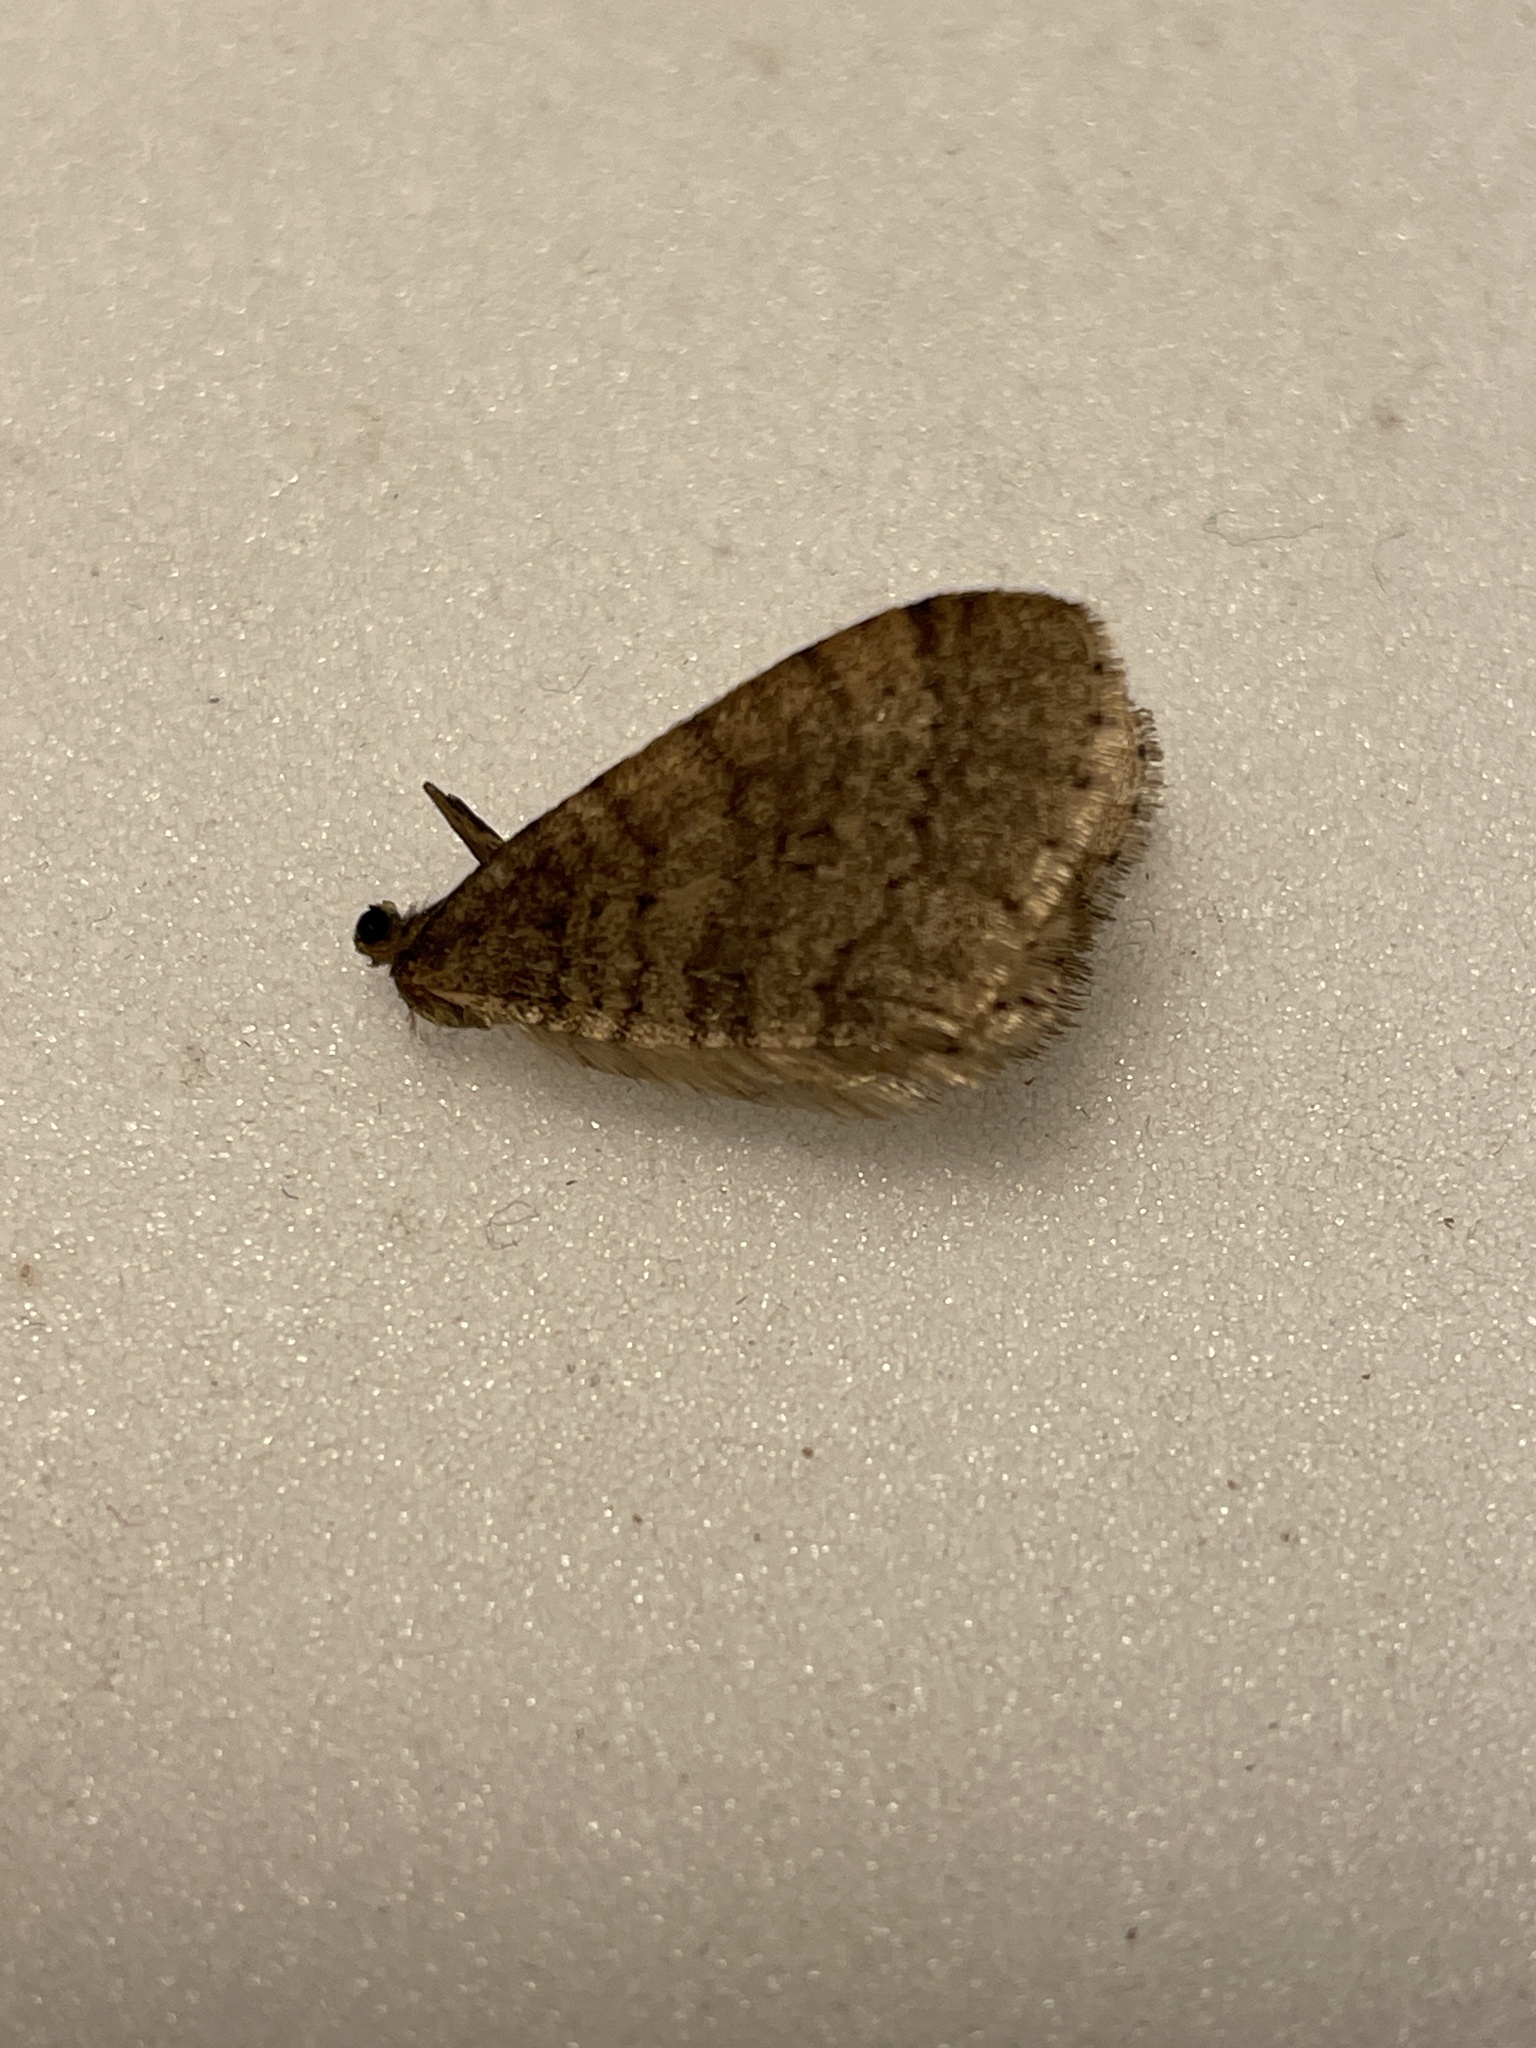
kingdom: Animalia
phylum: Arthropoda
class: Insecta
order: Lepidoptera
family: Geometridae
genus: Operophtera
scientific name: Operophtera brumata
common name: Winter moth
